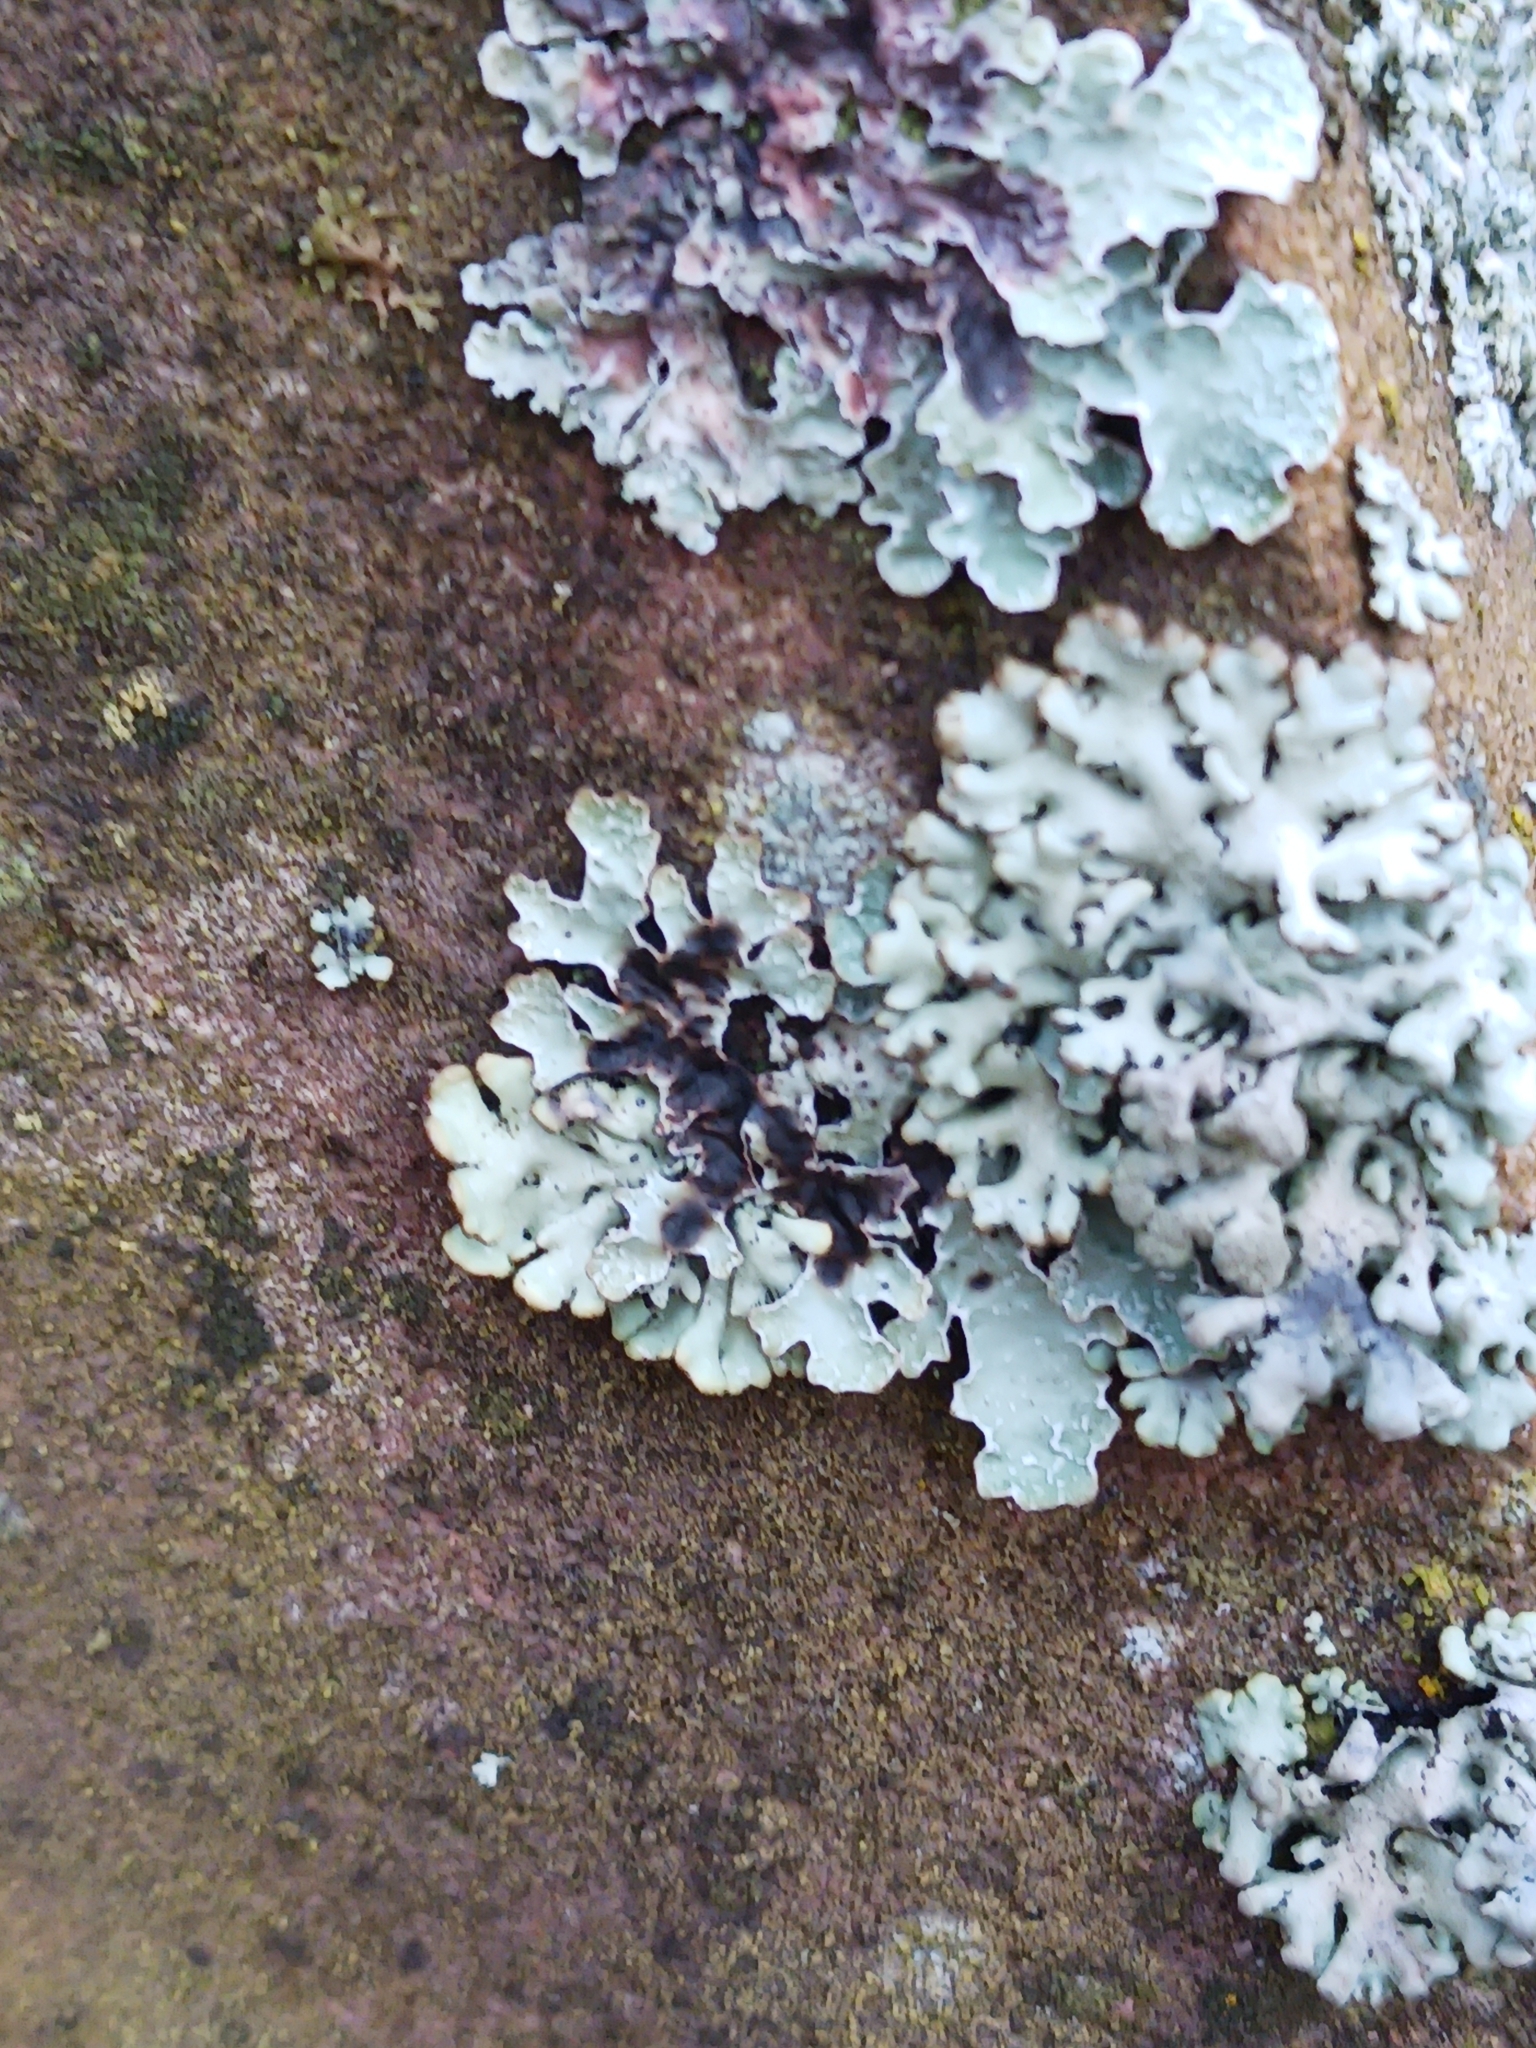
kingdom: Fungi
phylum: Ascomycota
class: Lecanoromycetes
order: Lecanorales
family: Parmeliaceae
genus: Parmelia
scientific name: Parmelia sulcata
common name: Netted shield lichen
